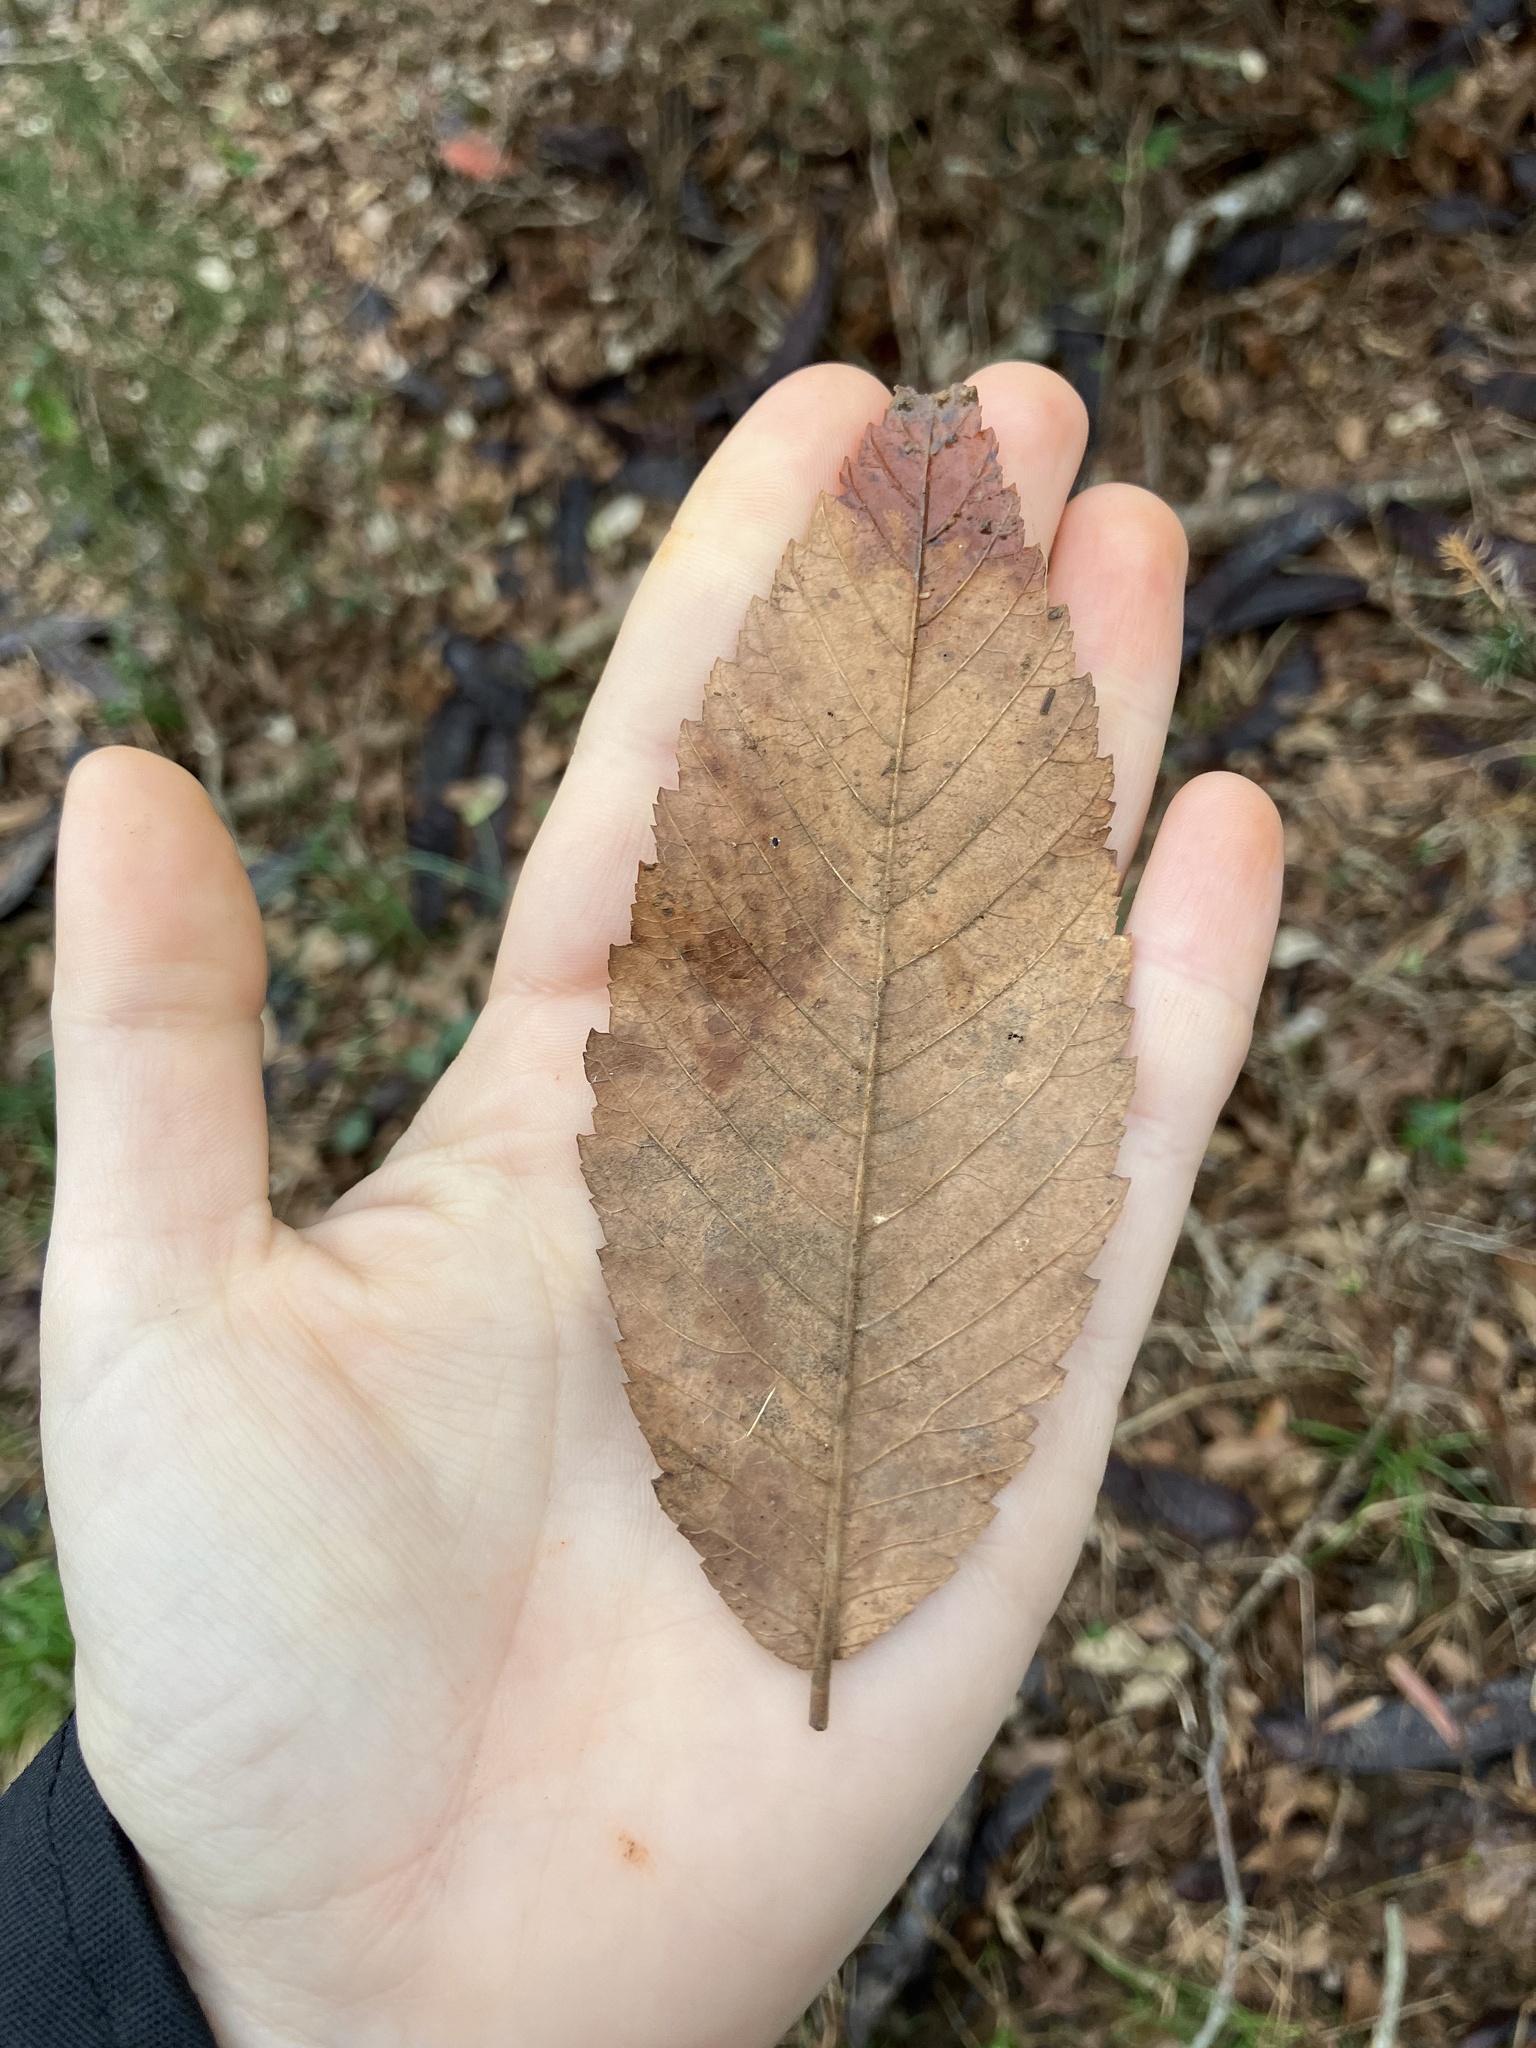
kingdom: Plantae
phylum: Tracheophyta
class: Magnoliopsida
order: Rosales
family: Ulmaceae
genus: Ulmus
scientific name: Ulmus alata
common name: Winged elm
